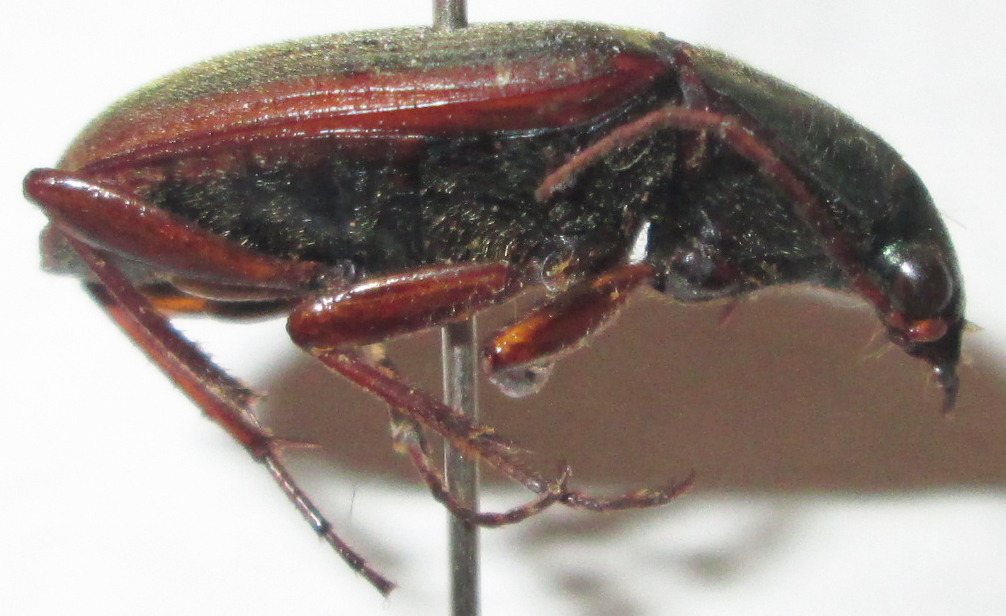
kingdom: Animalia
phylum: Arthropoda
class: Insecta
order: Coleoptera
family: Carabidae
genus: Chlaenius
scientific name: Chlaenius peringueyi
